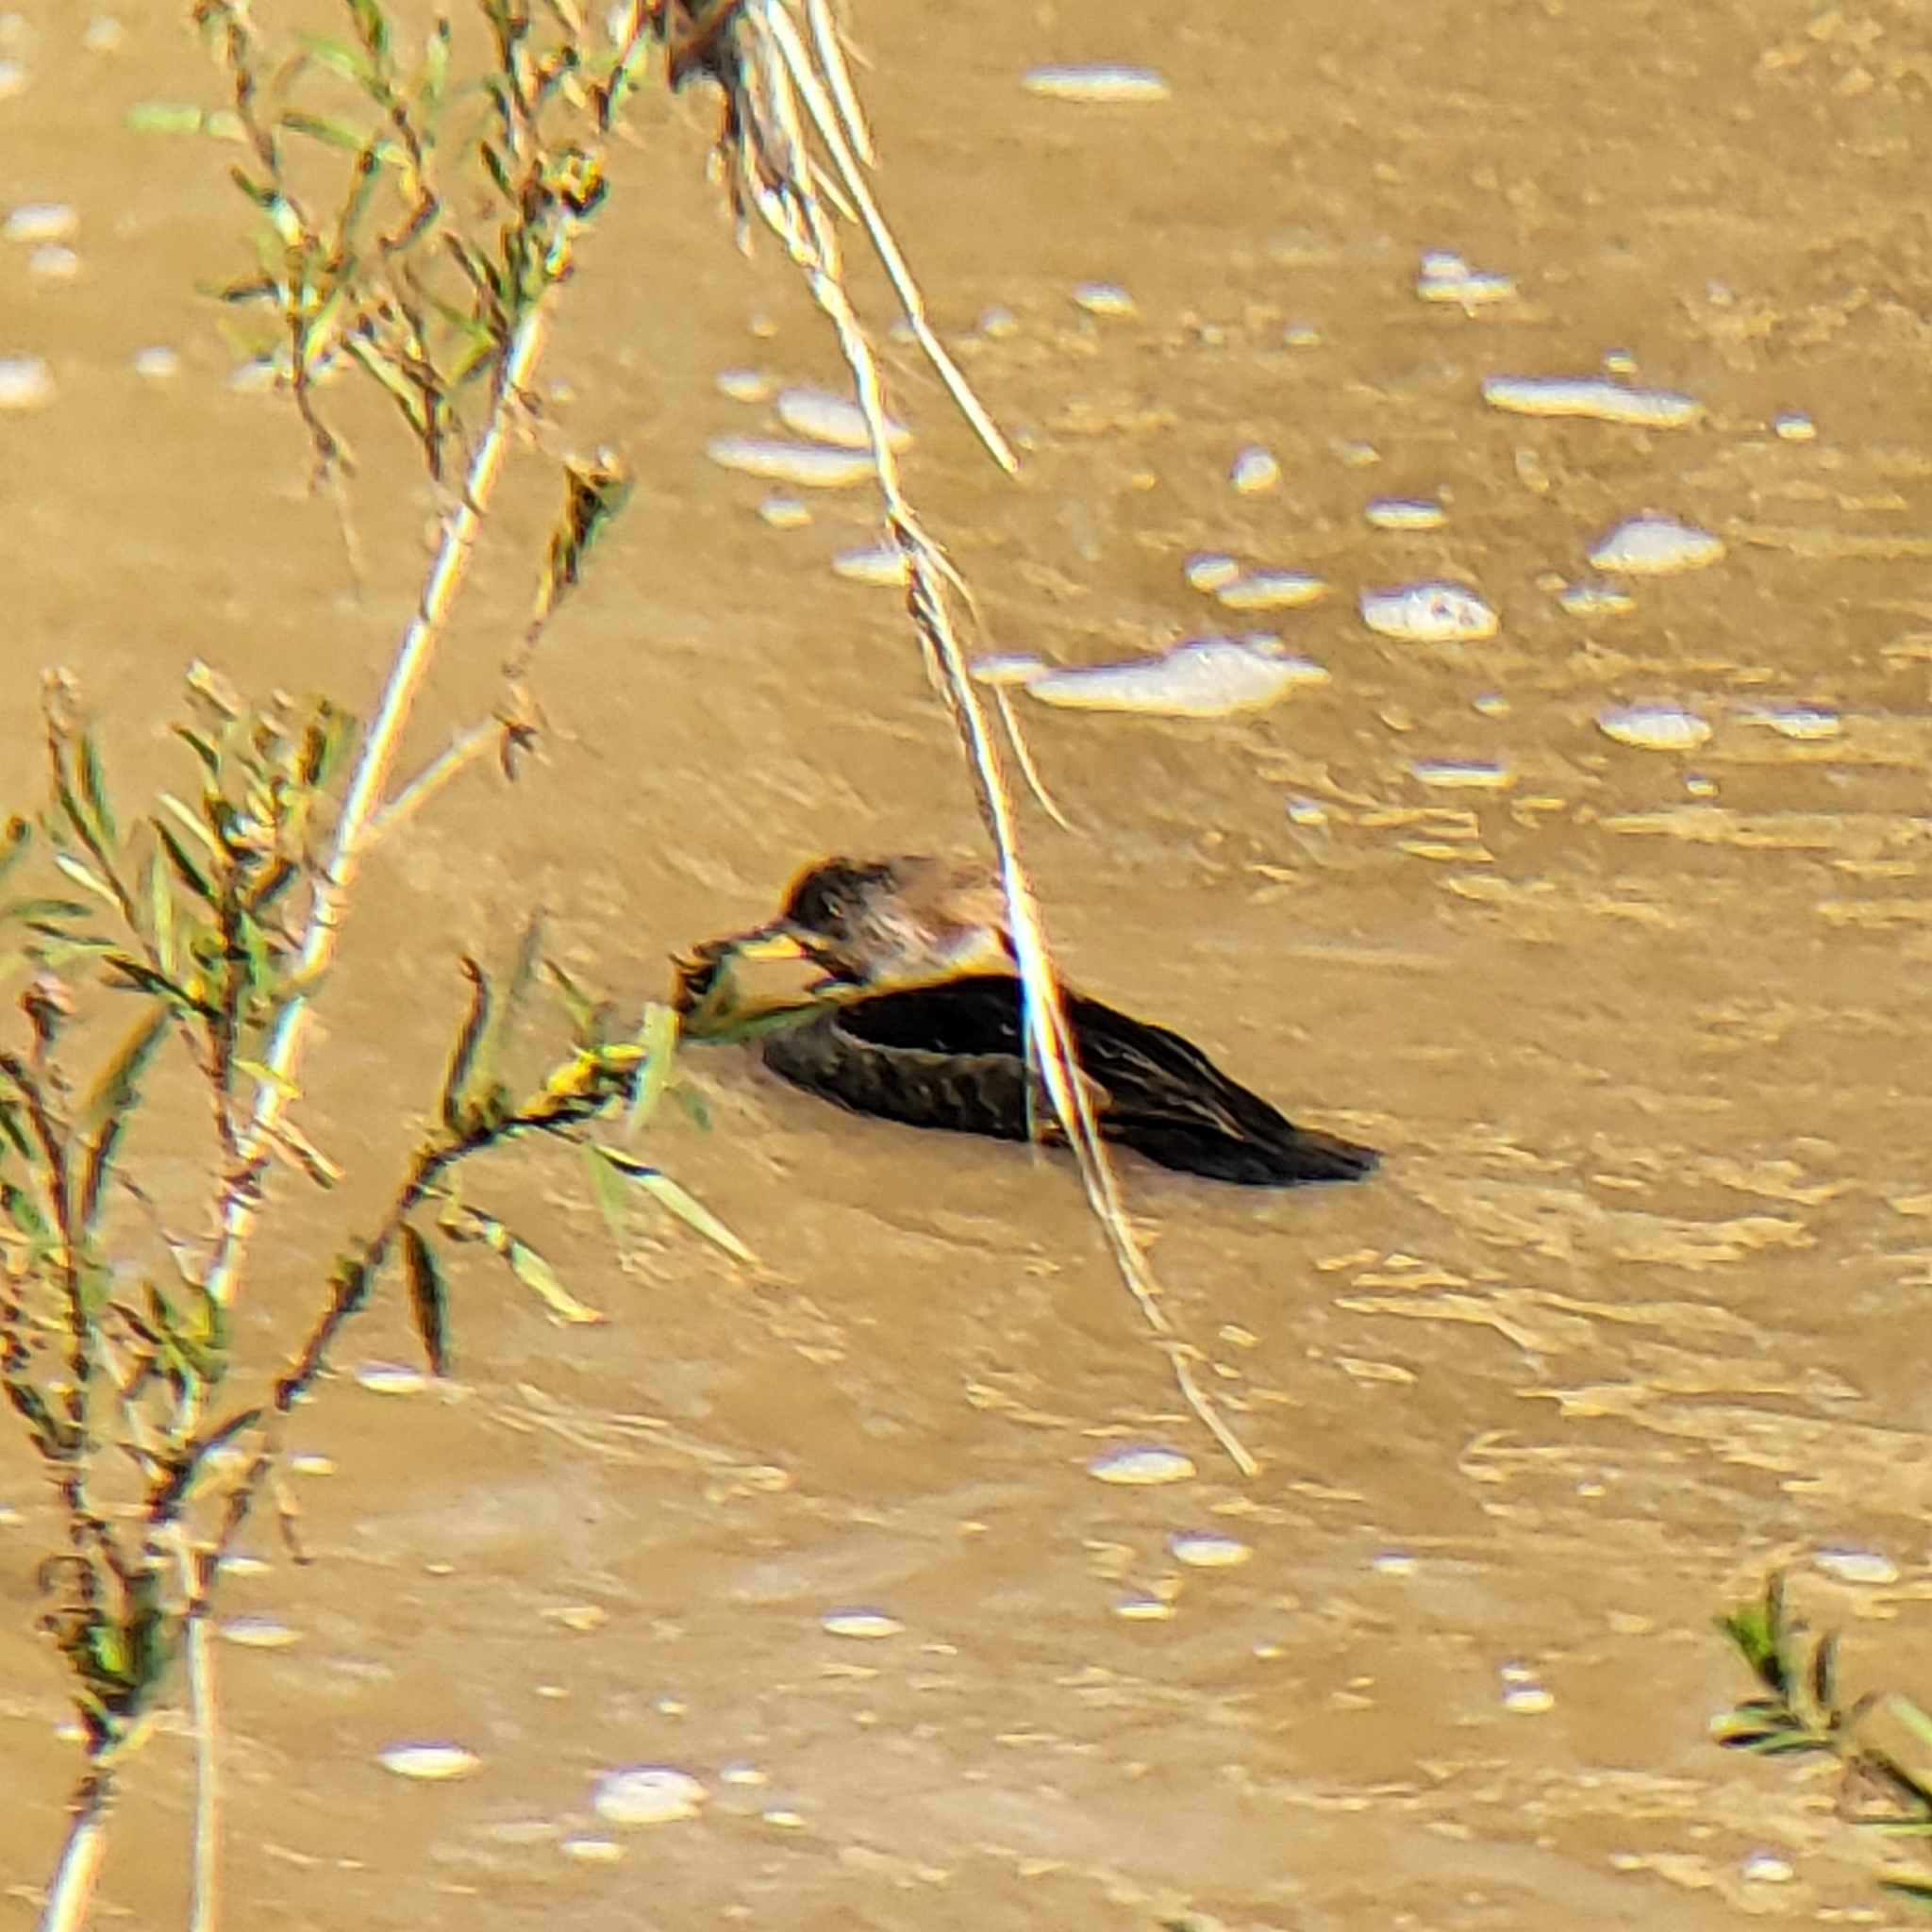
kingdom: Animalia
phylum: Chordata
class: Aves
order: Anseriformes
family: Anatidae
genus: Lophodytes
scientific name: Lophodytes cucullatus
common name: Hooded merganser
